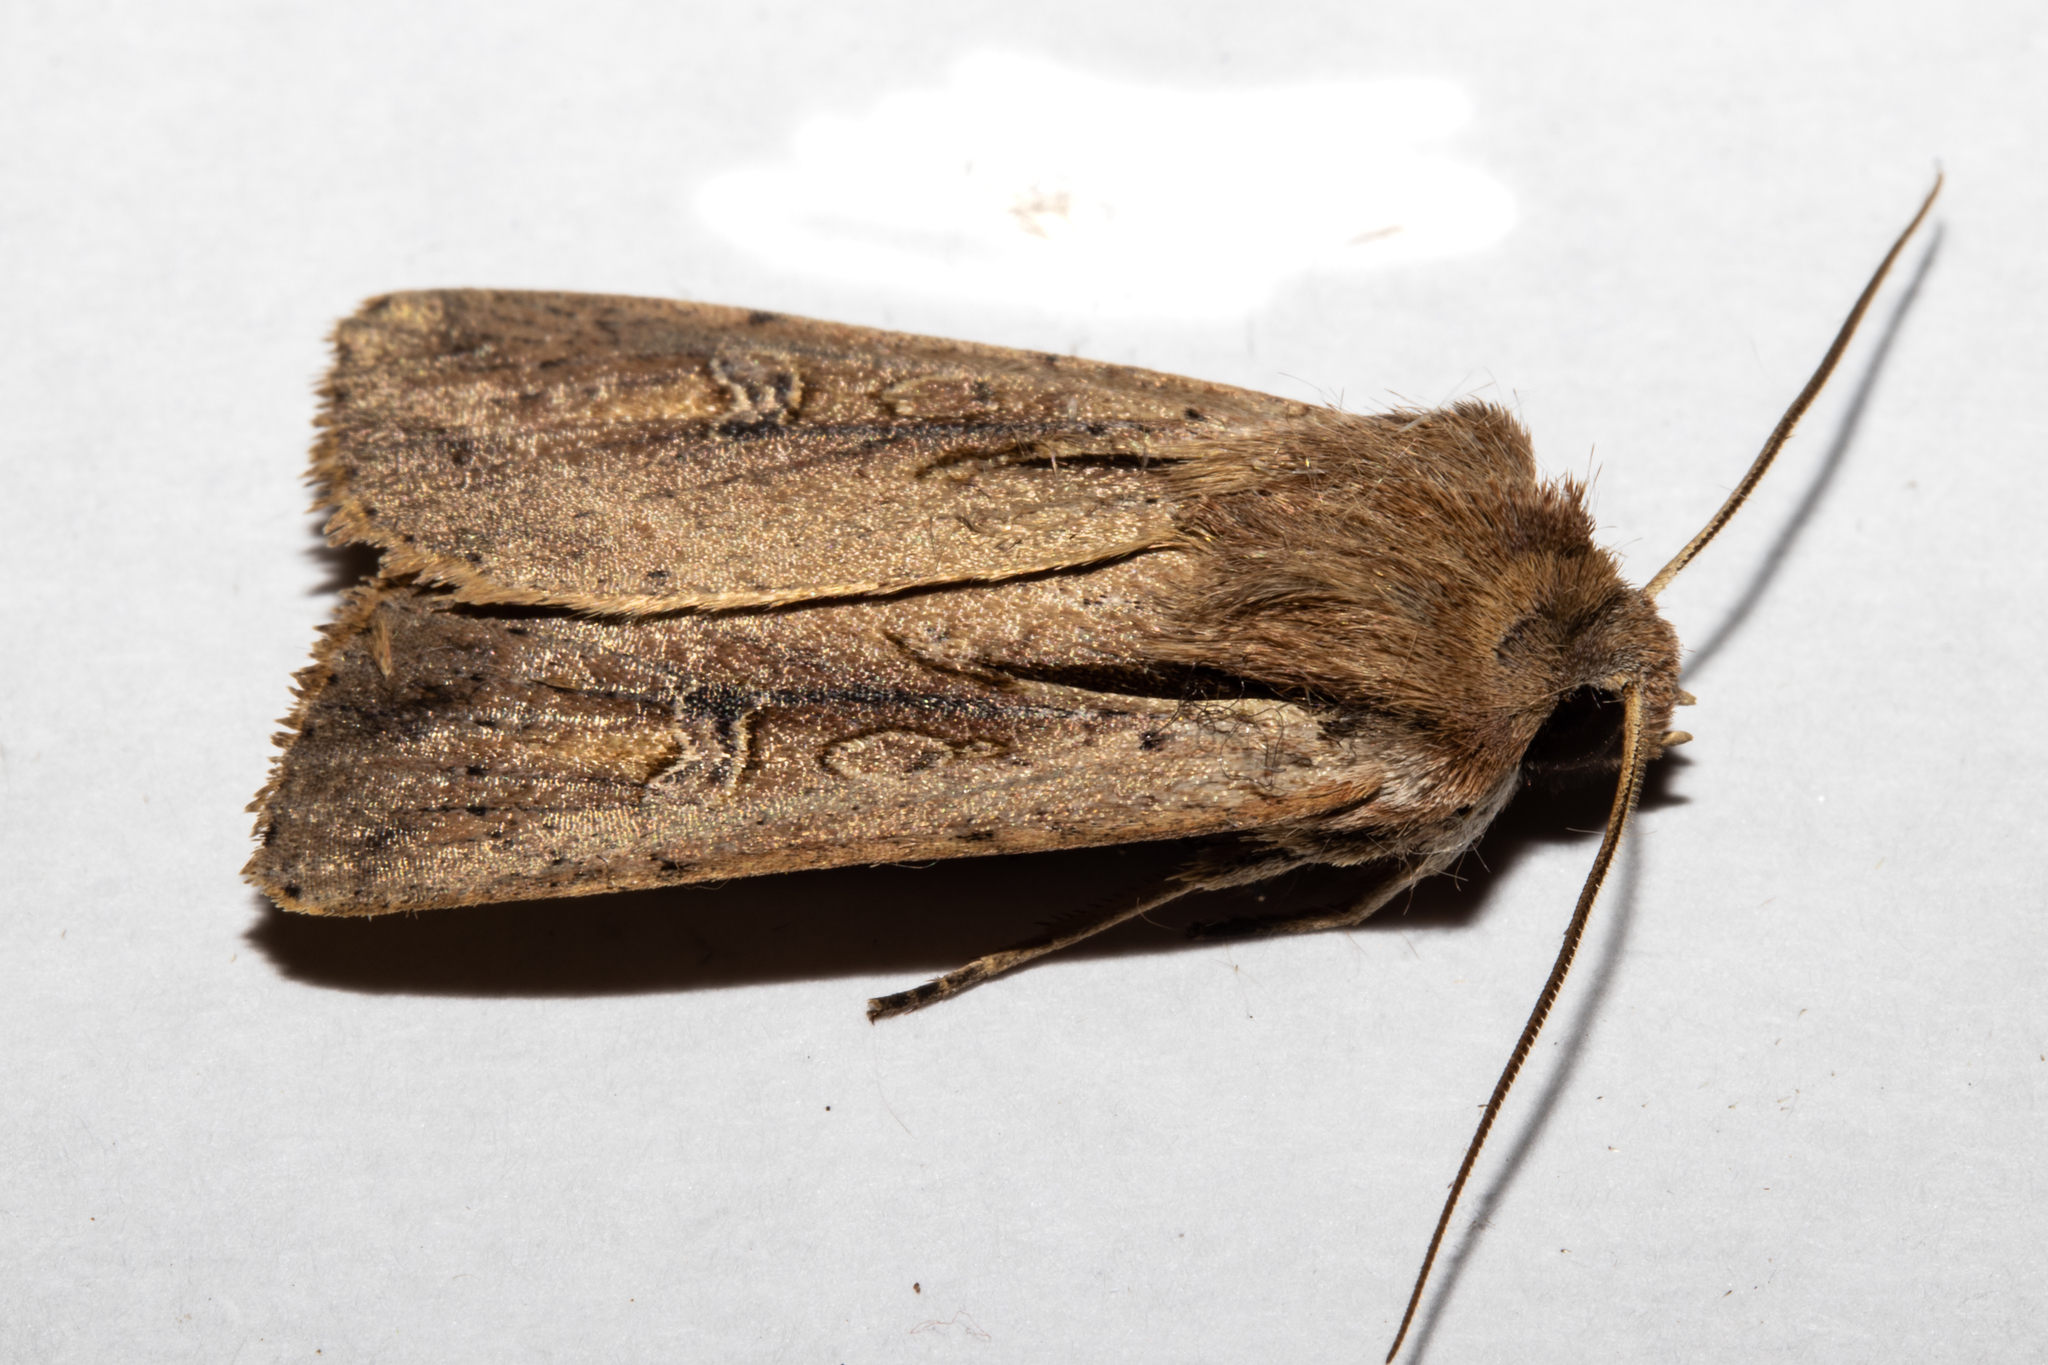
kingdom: Animalia
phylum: Arthropoda
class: Insecta
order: Lepidoptera
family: Noctuidae
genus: Ichneutica
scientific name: Ichneutica atristriga
